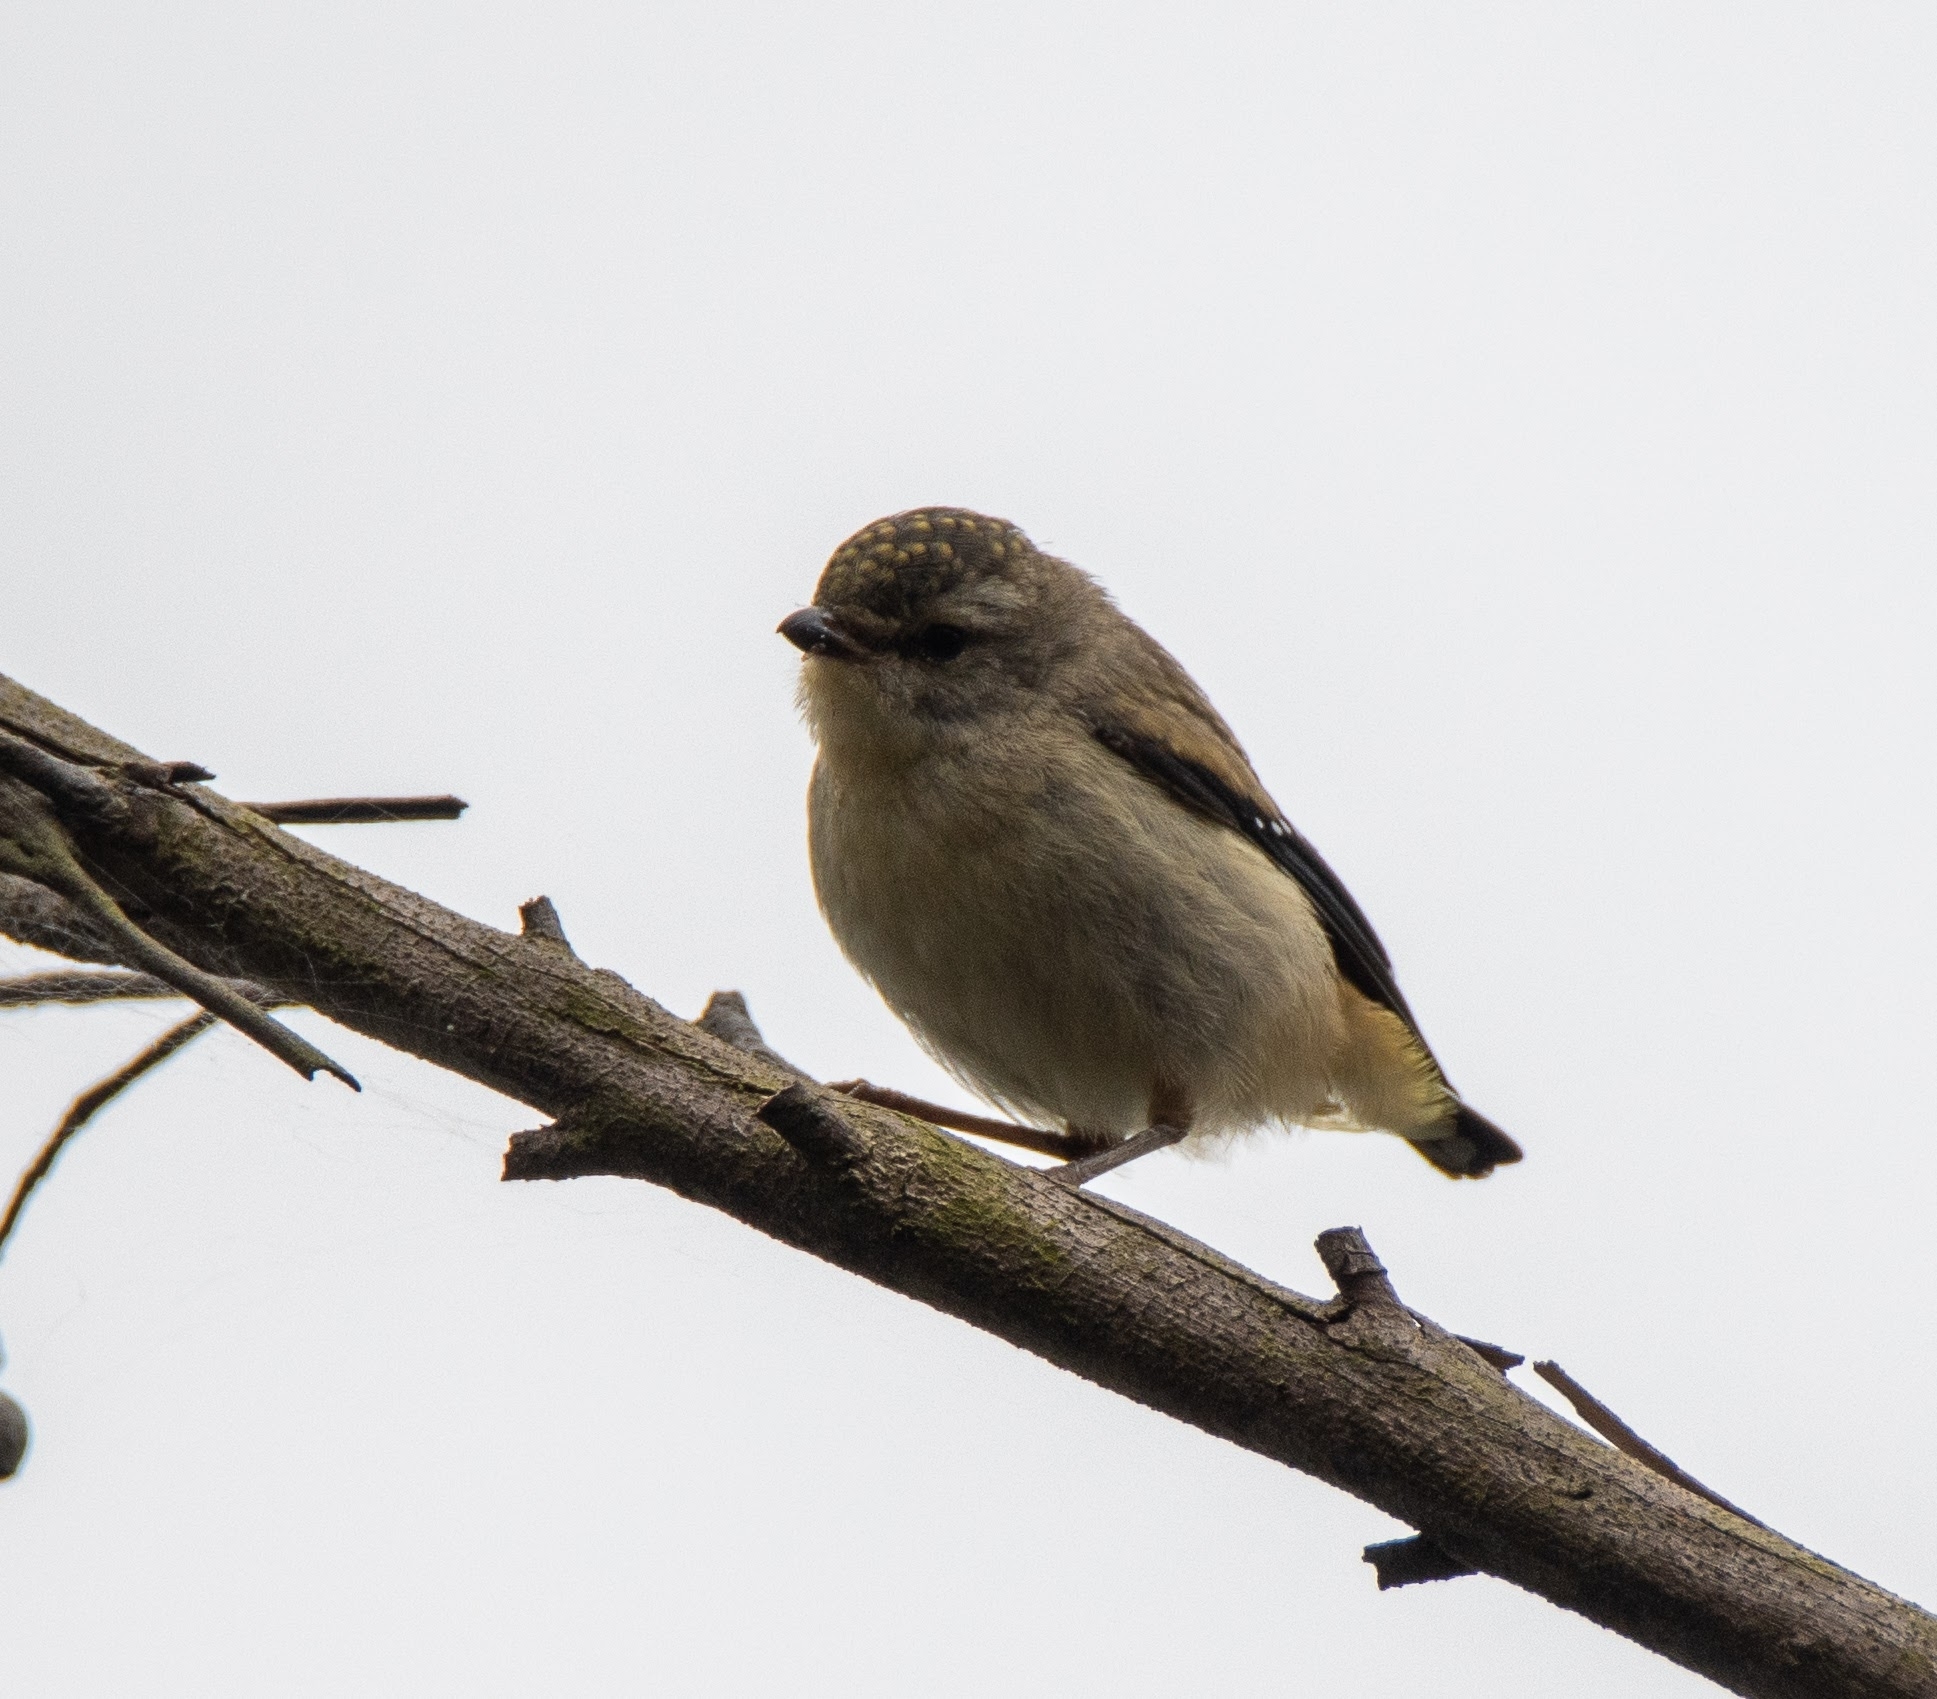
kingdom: Animalia
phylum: Chordata
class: Aves
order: Passeriformes
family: Pardalotidae
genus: Pardalotus
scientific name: Pardalotus punctatus
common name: Spotted pardalote
